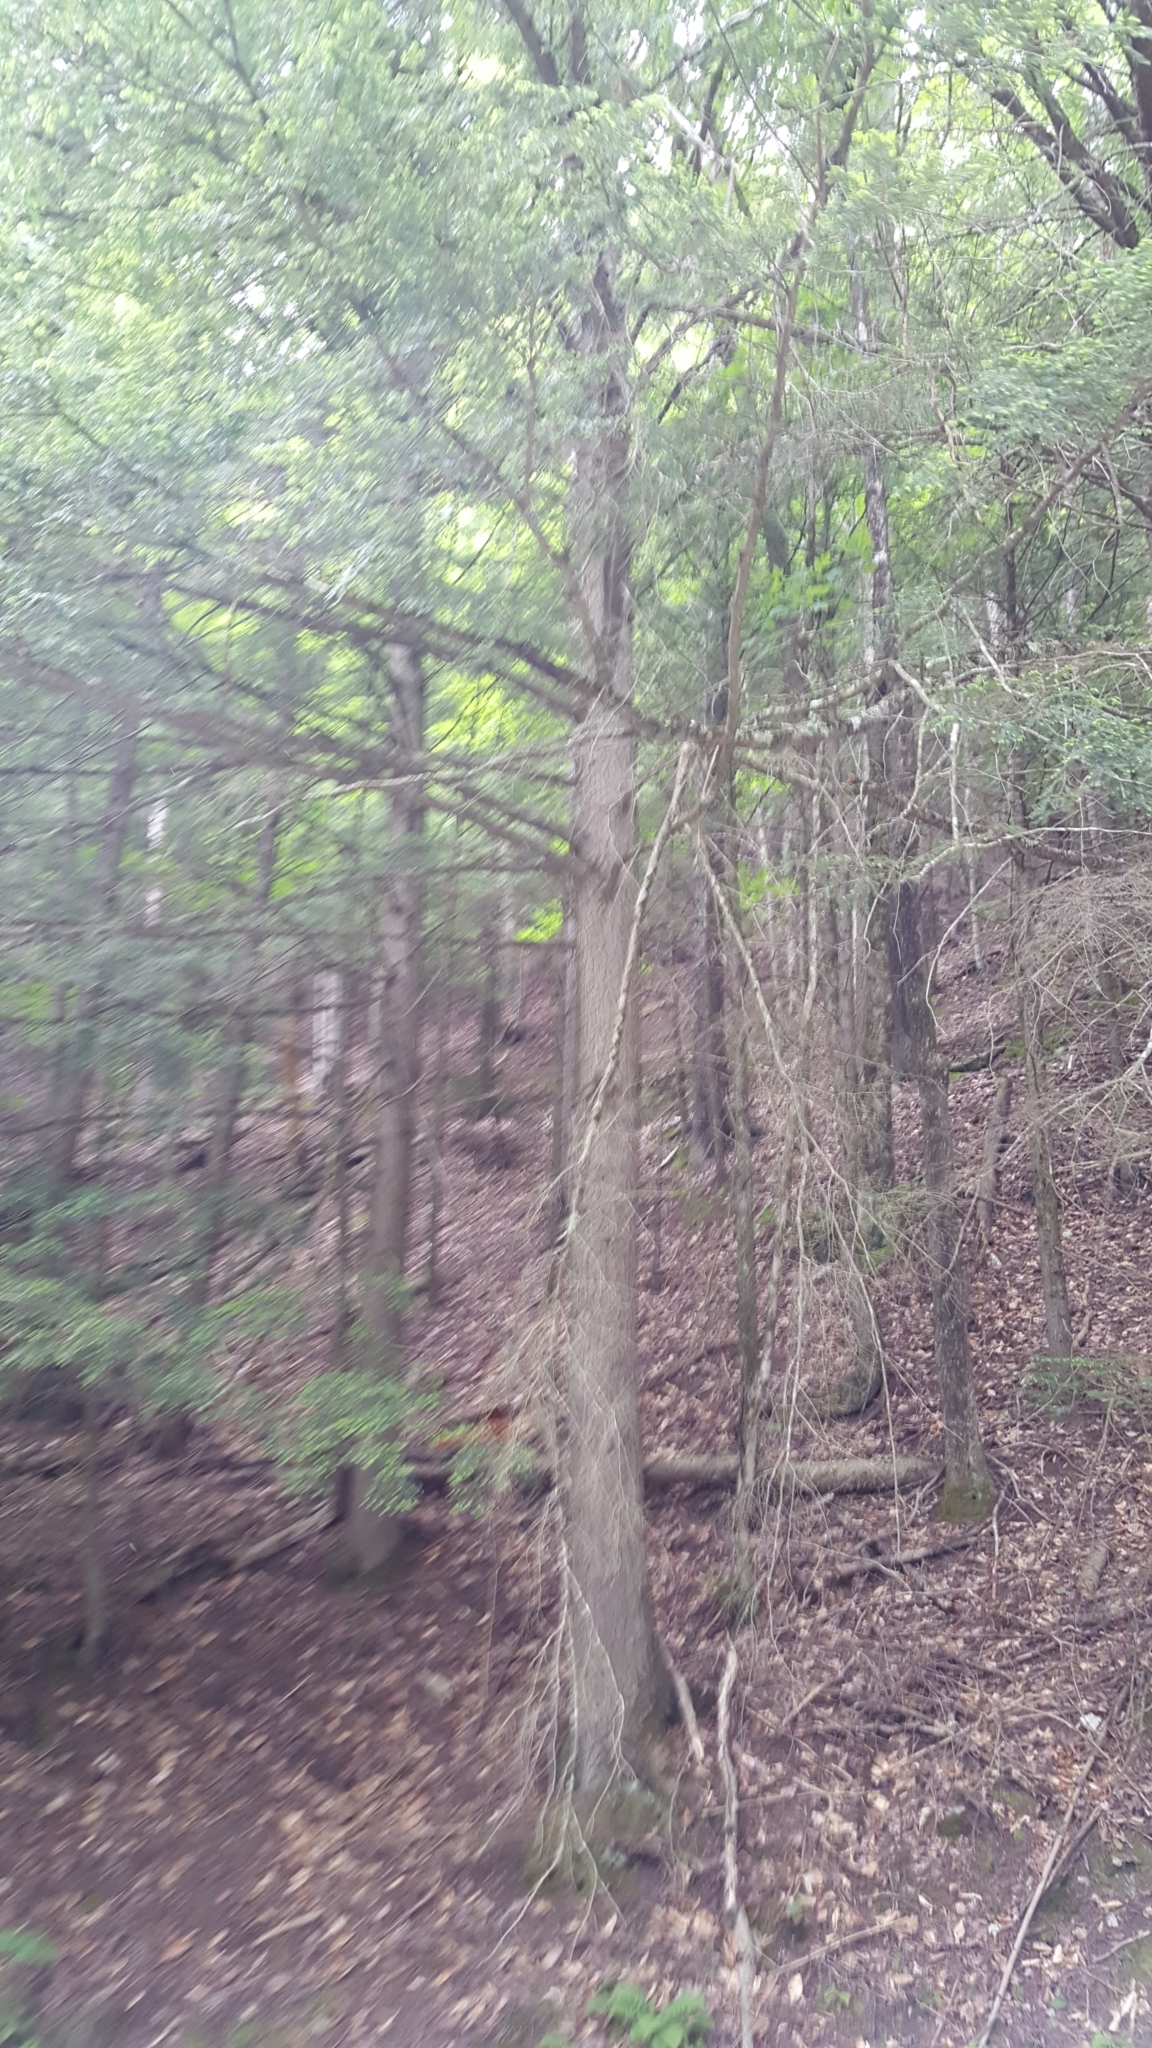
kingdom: Plantae
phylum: Tracheophyta
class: Pinopsida
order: Pinales
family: Pinaceae
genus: Tsuga
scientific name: Tsuga canadensis
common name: Eastern hemlock
